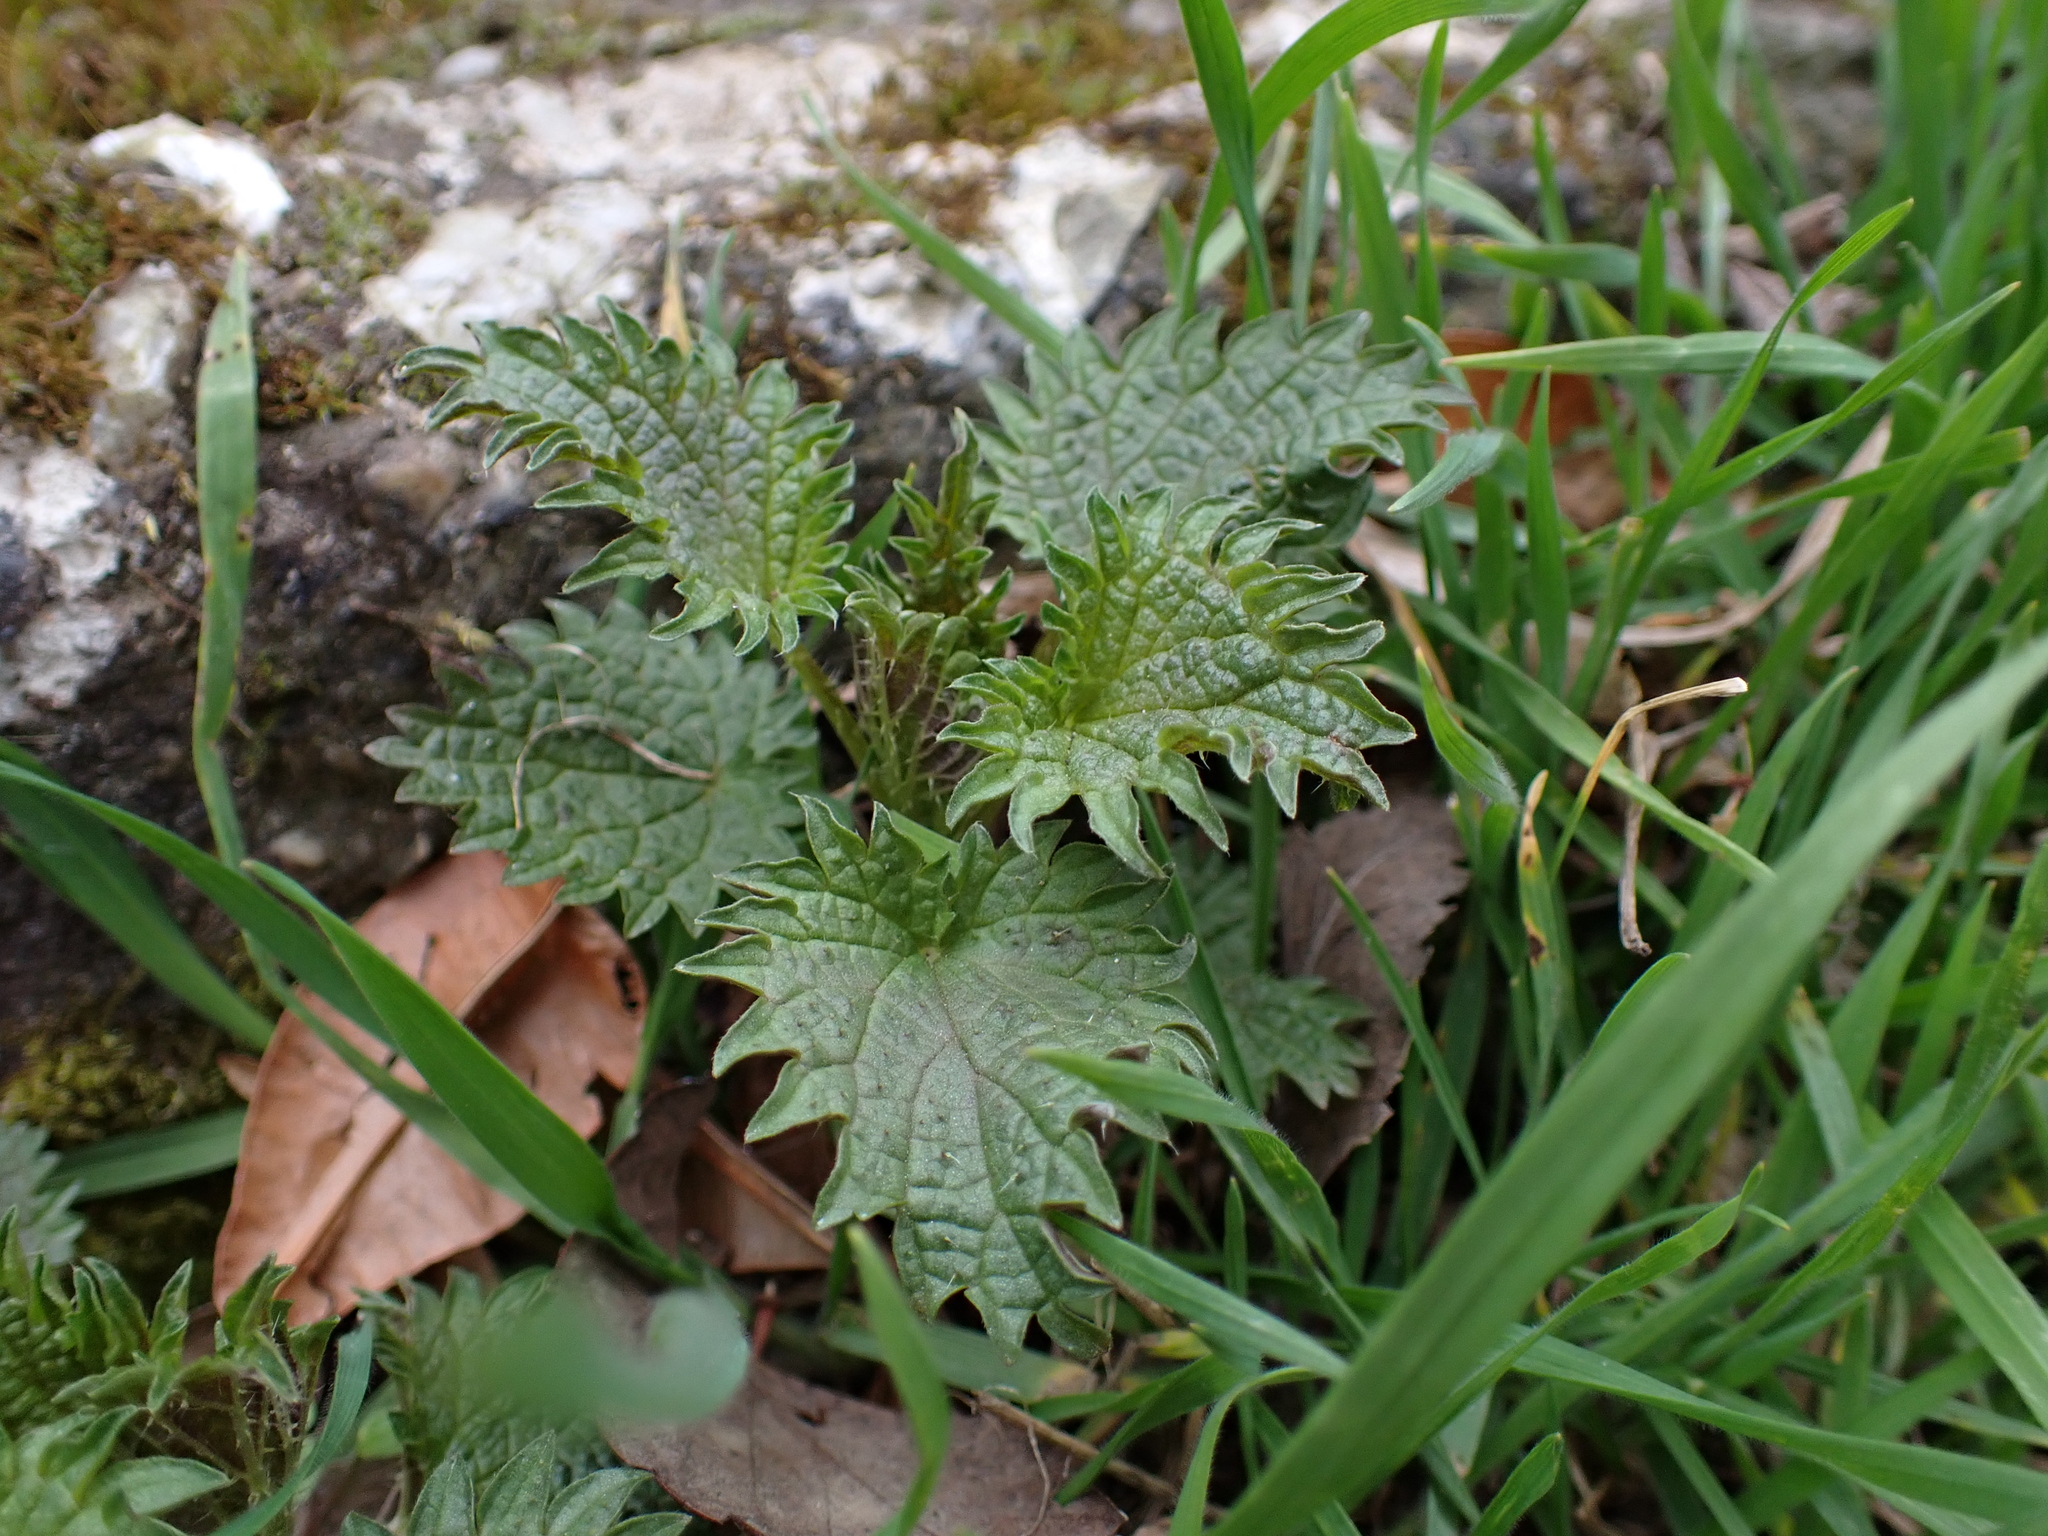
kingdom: Plantae
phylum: Tracheophyta
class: Magnoliopsida
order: Rosales
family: Urticaceae
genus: Urtica
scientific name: Urtica dioica
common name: Common nettle
